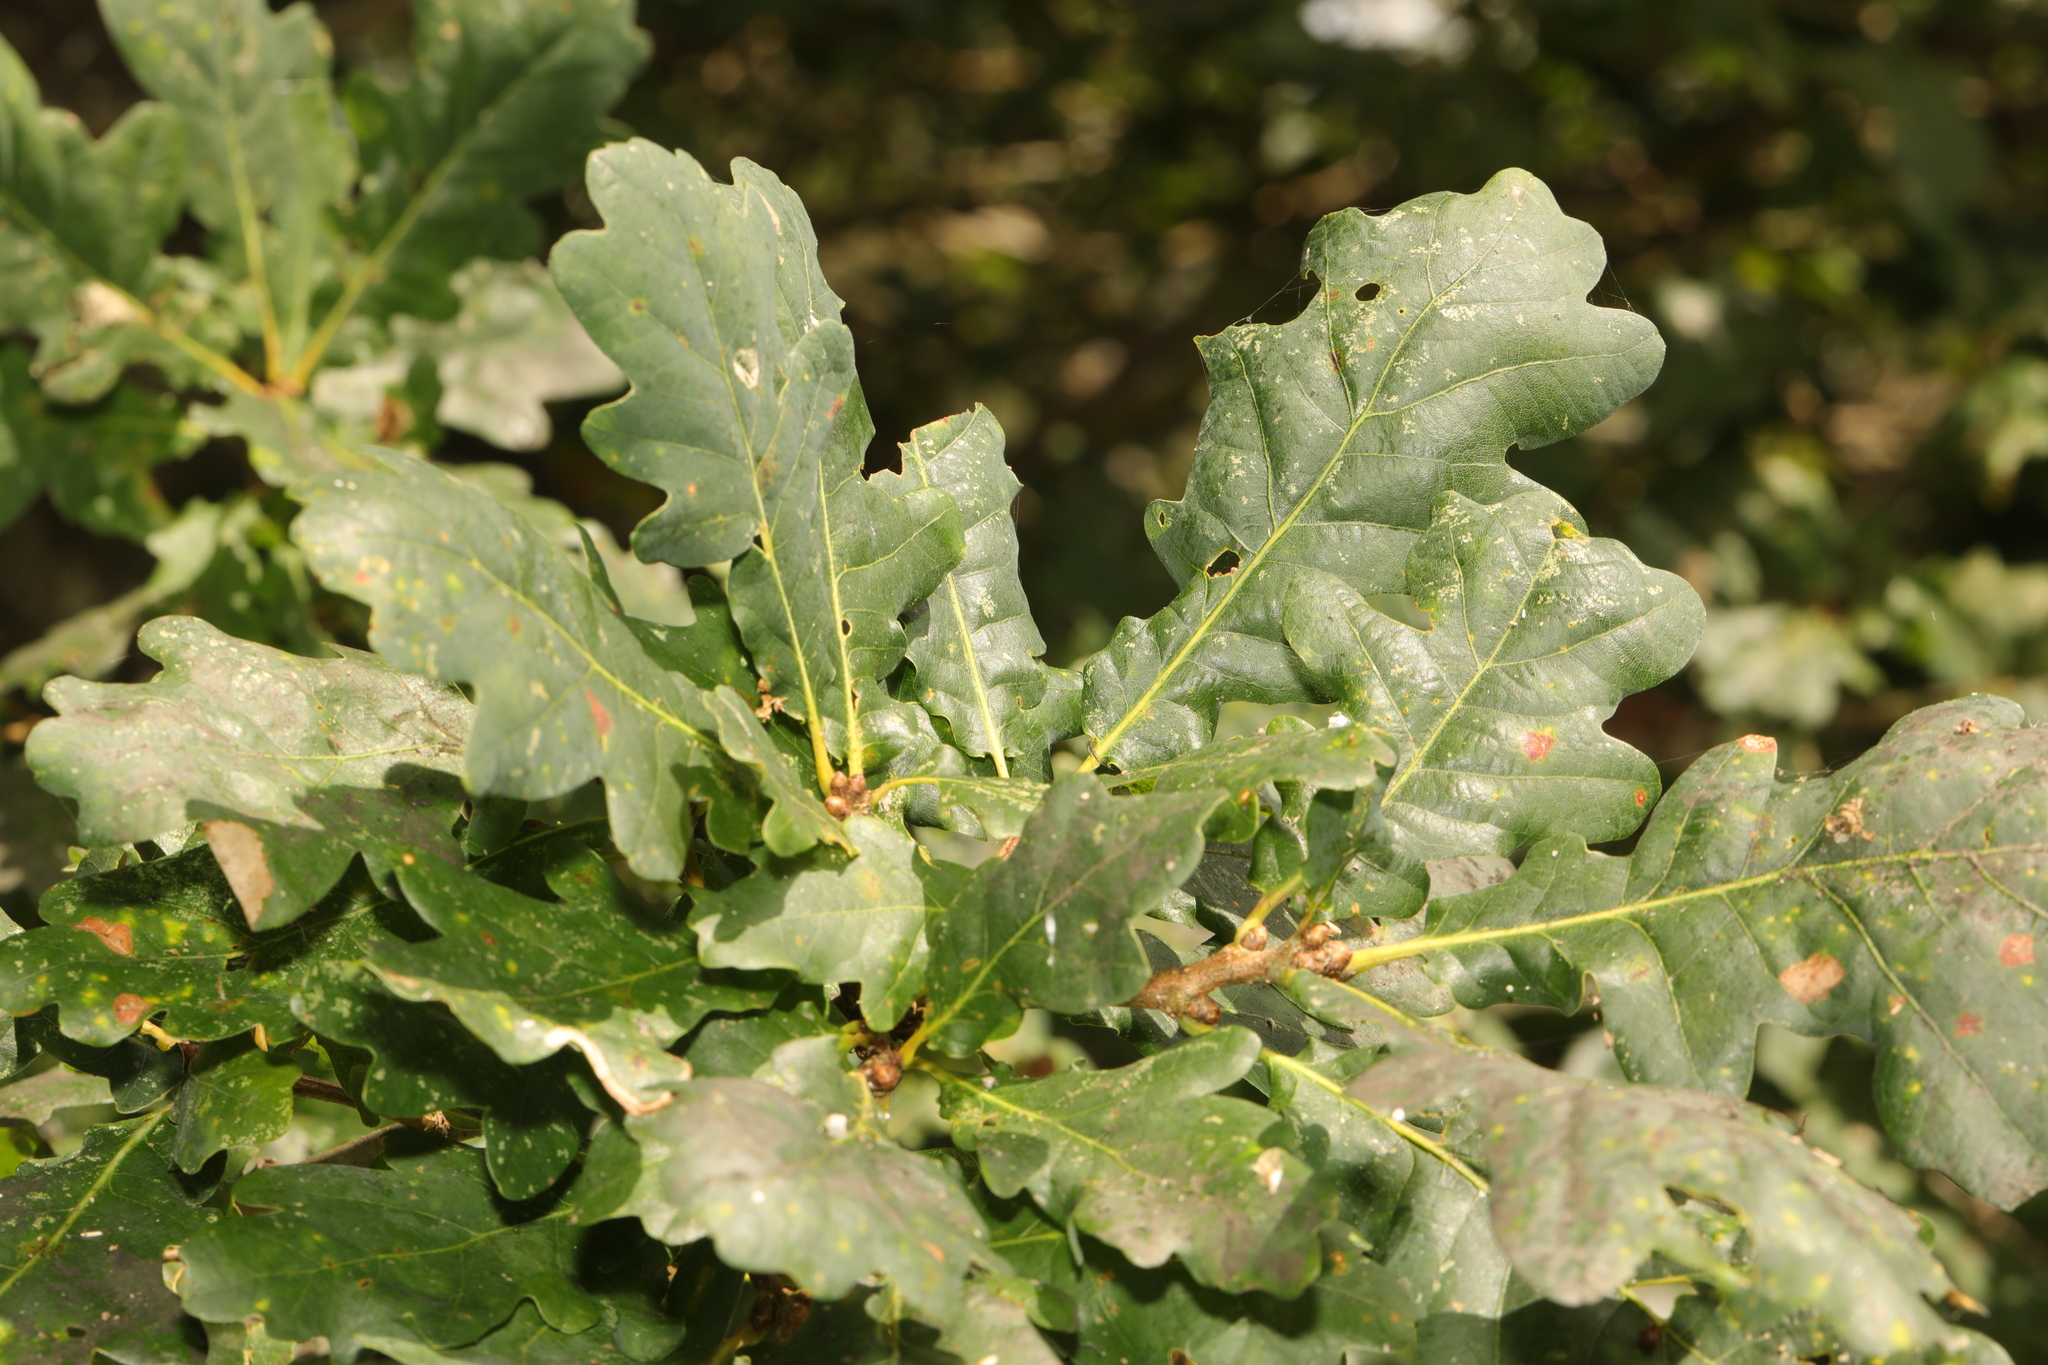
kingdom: Plantae
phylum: Tracheophyta
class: Magnoliopsida
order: Fagales
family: Fagaceae
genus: Quercus
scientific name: Quercus robur
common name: Pedunculate oak
